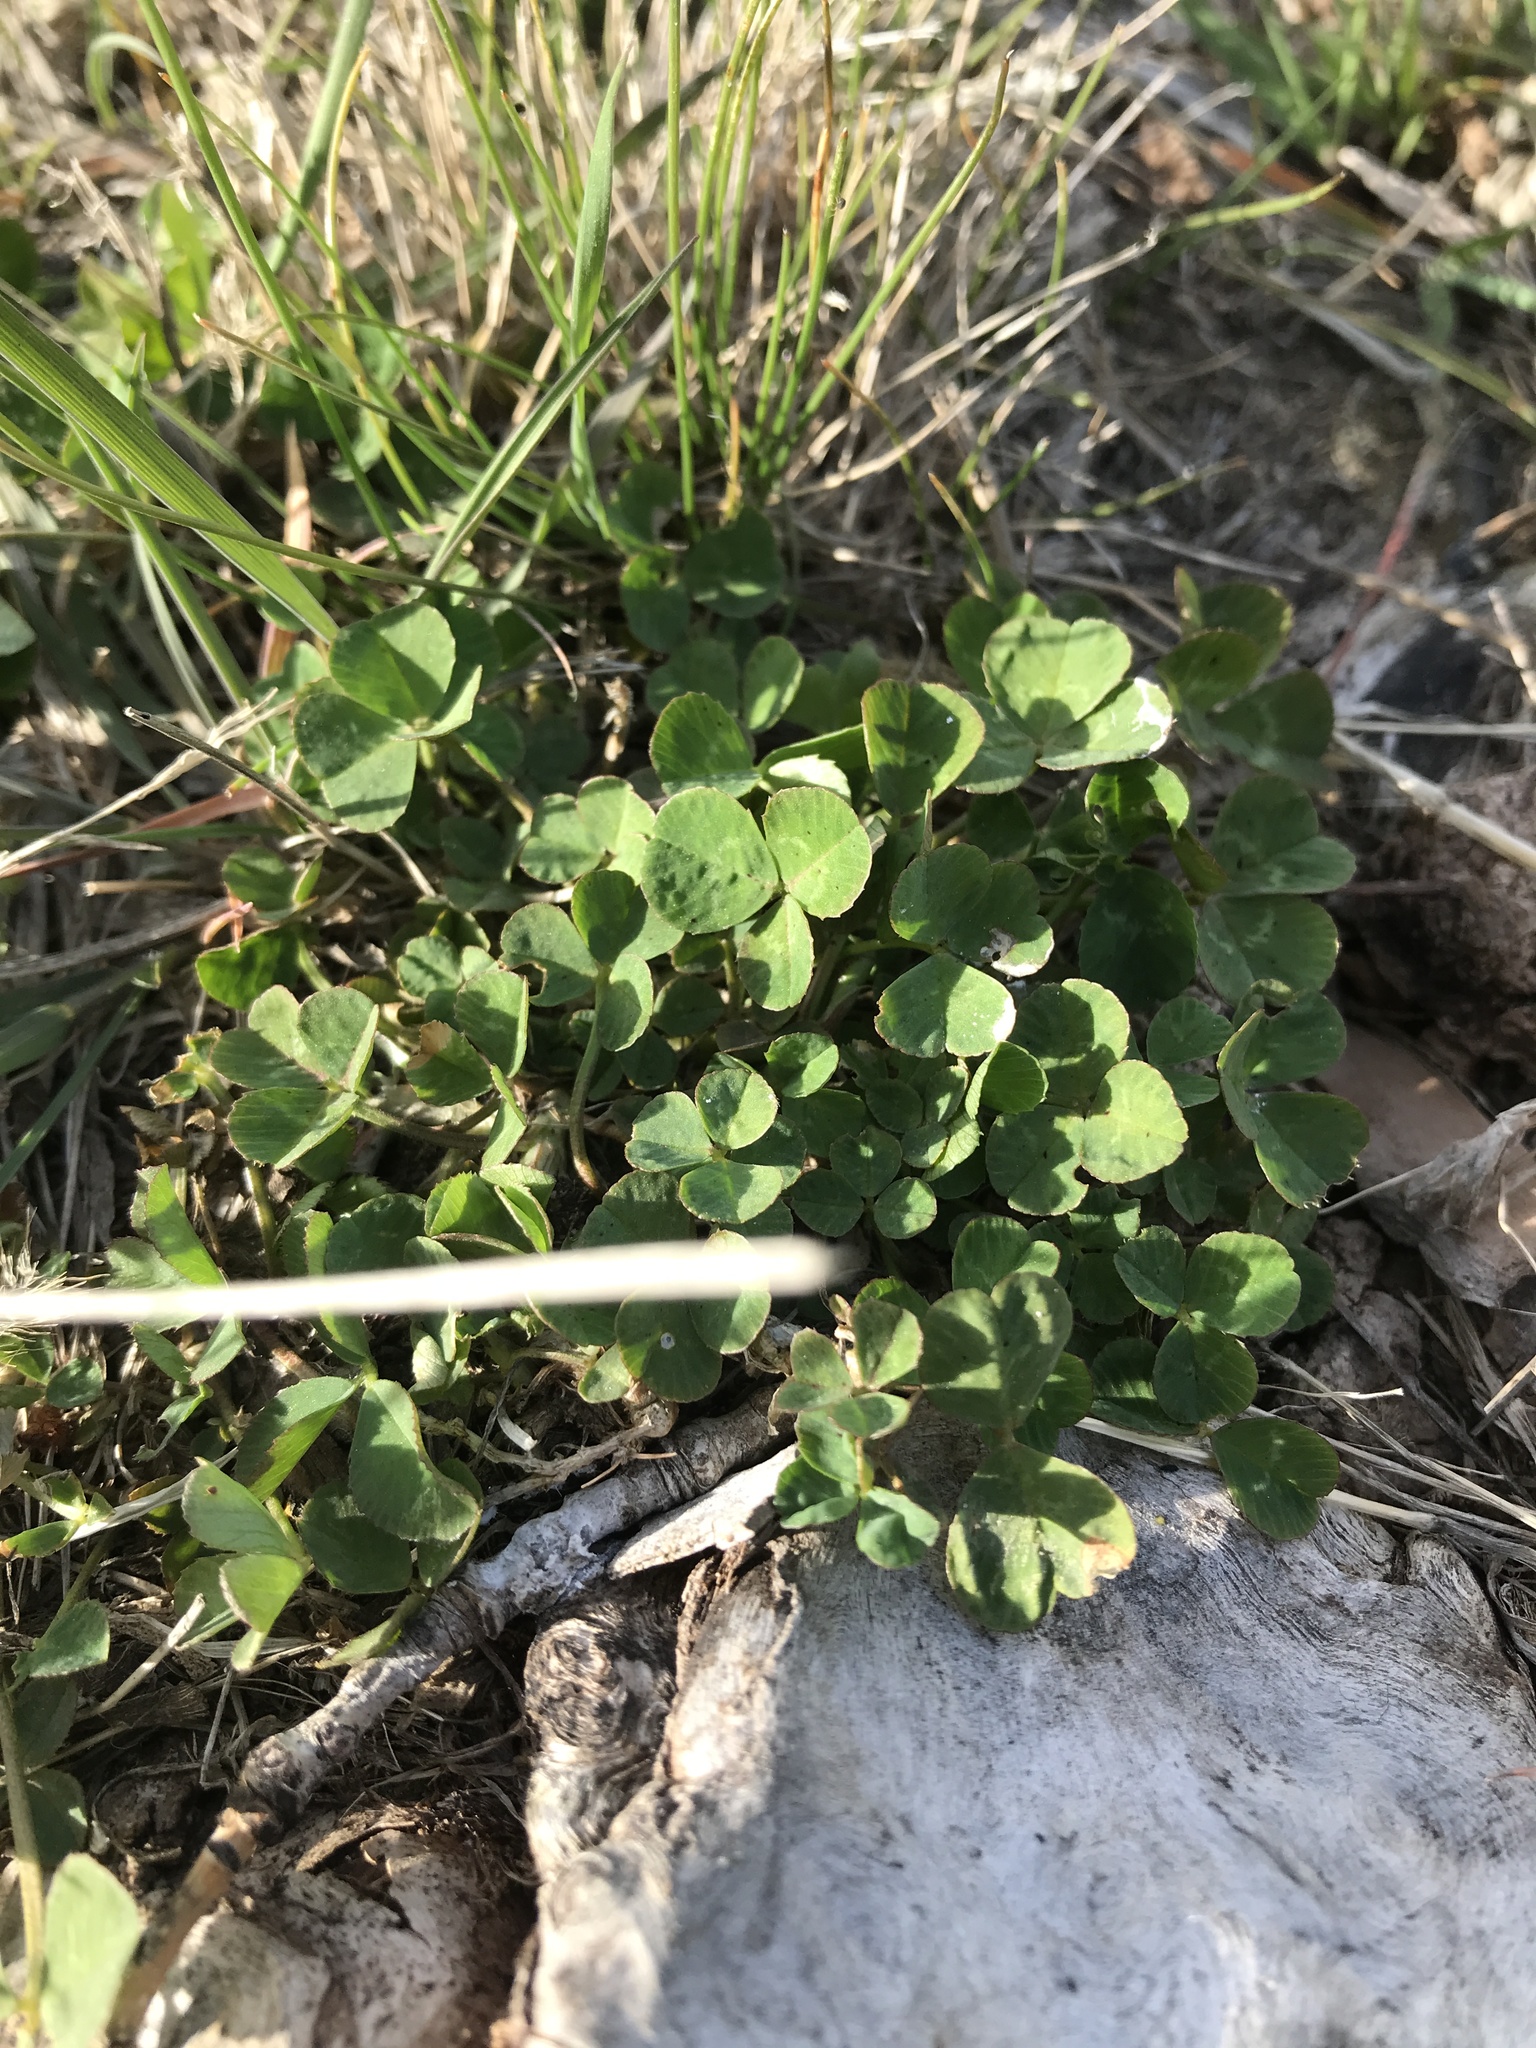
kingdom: Plantae
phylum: Tracheophyta
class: Magnoliopsida
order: Fabales
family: Fabaceae
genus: Trifolium
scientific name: Trifolium repens
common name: White clover
